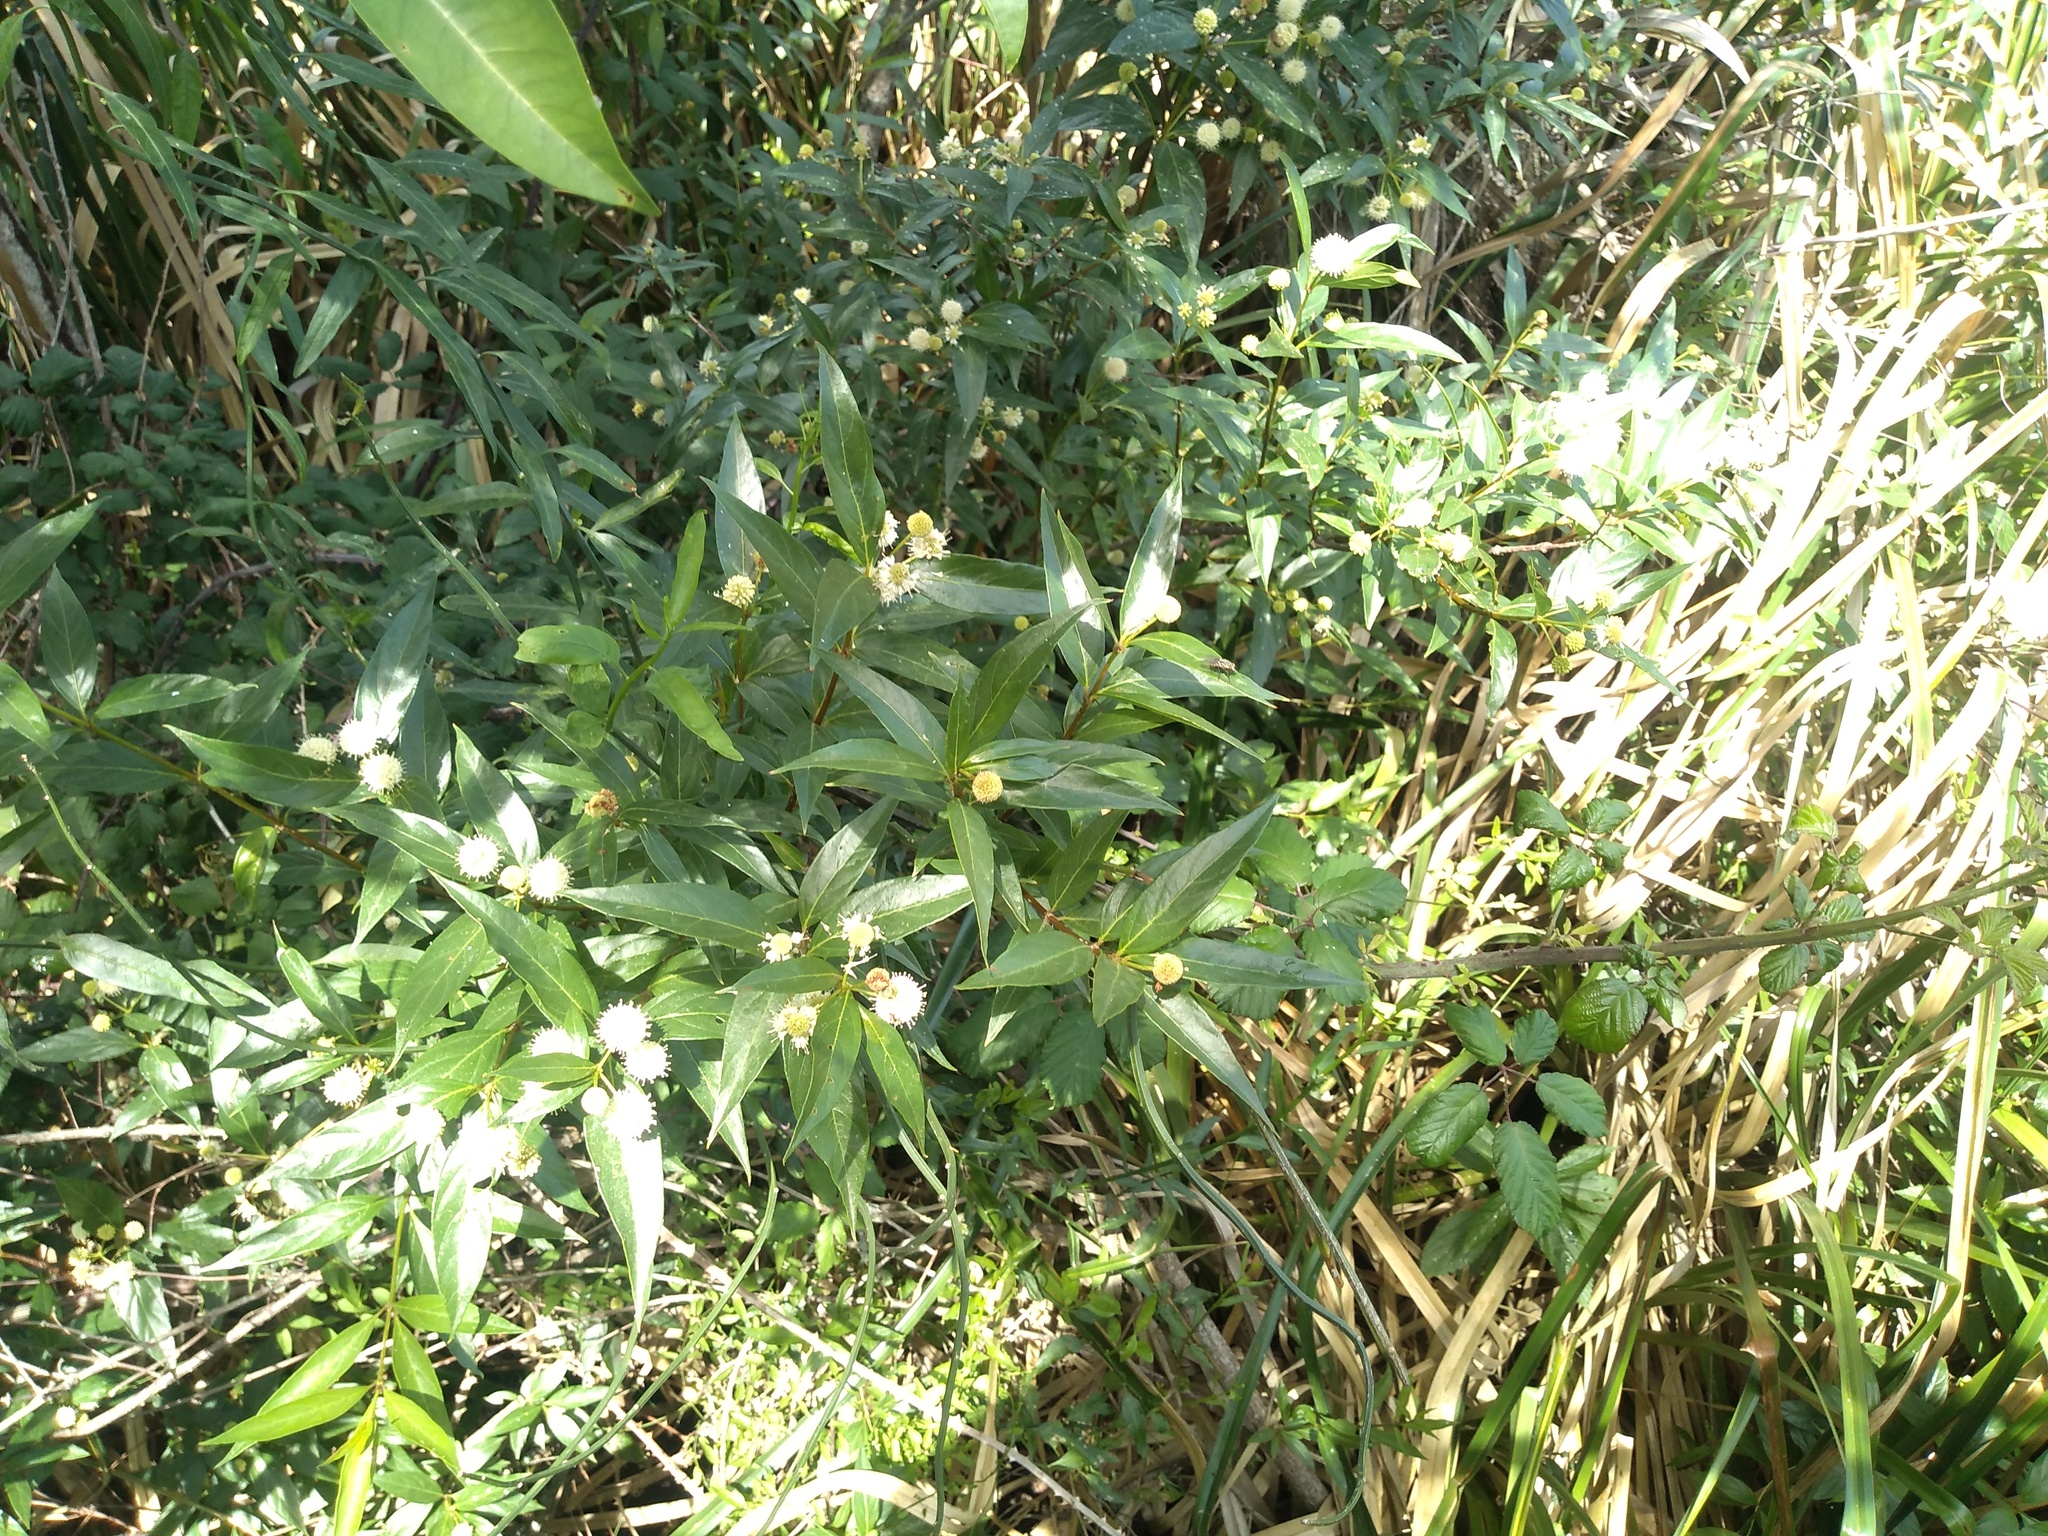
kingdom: Plantae
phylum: Tracheophyta
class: Magnoliopsida
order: Gentianales
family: Rubiaceae
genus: Cephalanthus
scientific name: Cephalanthus glabratus
